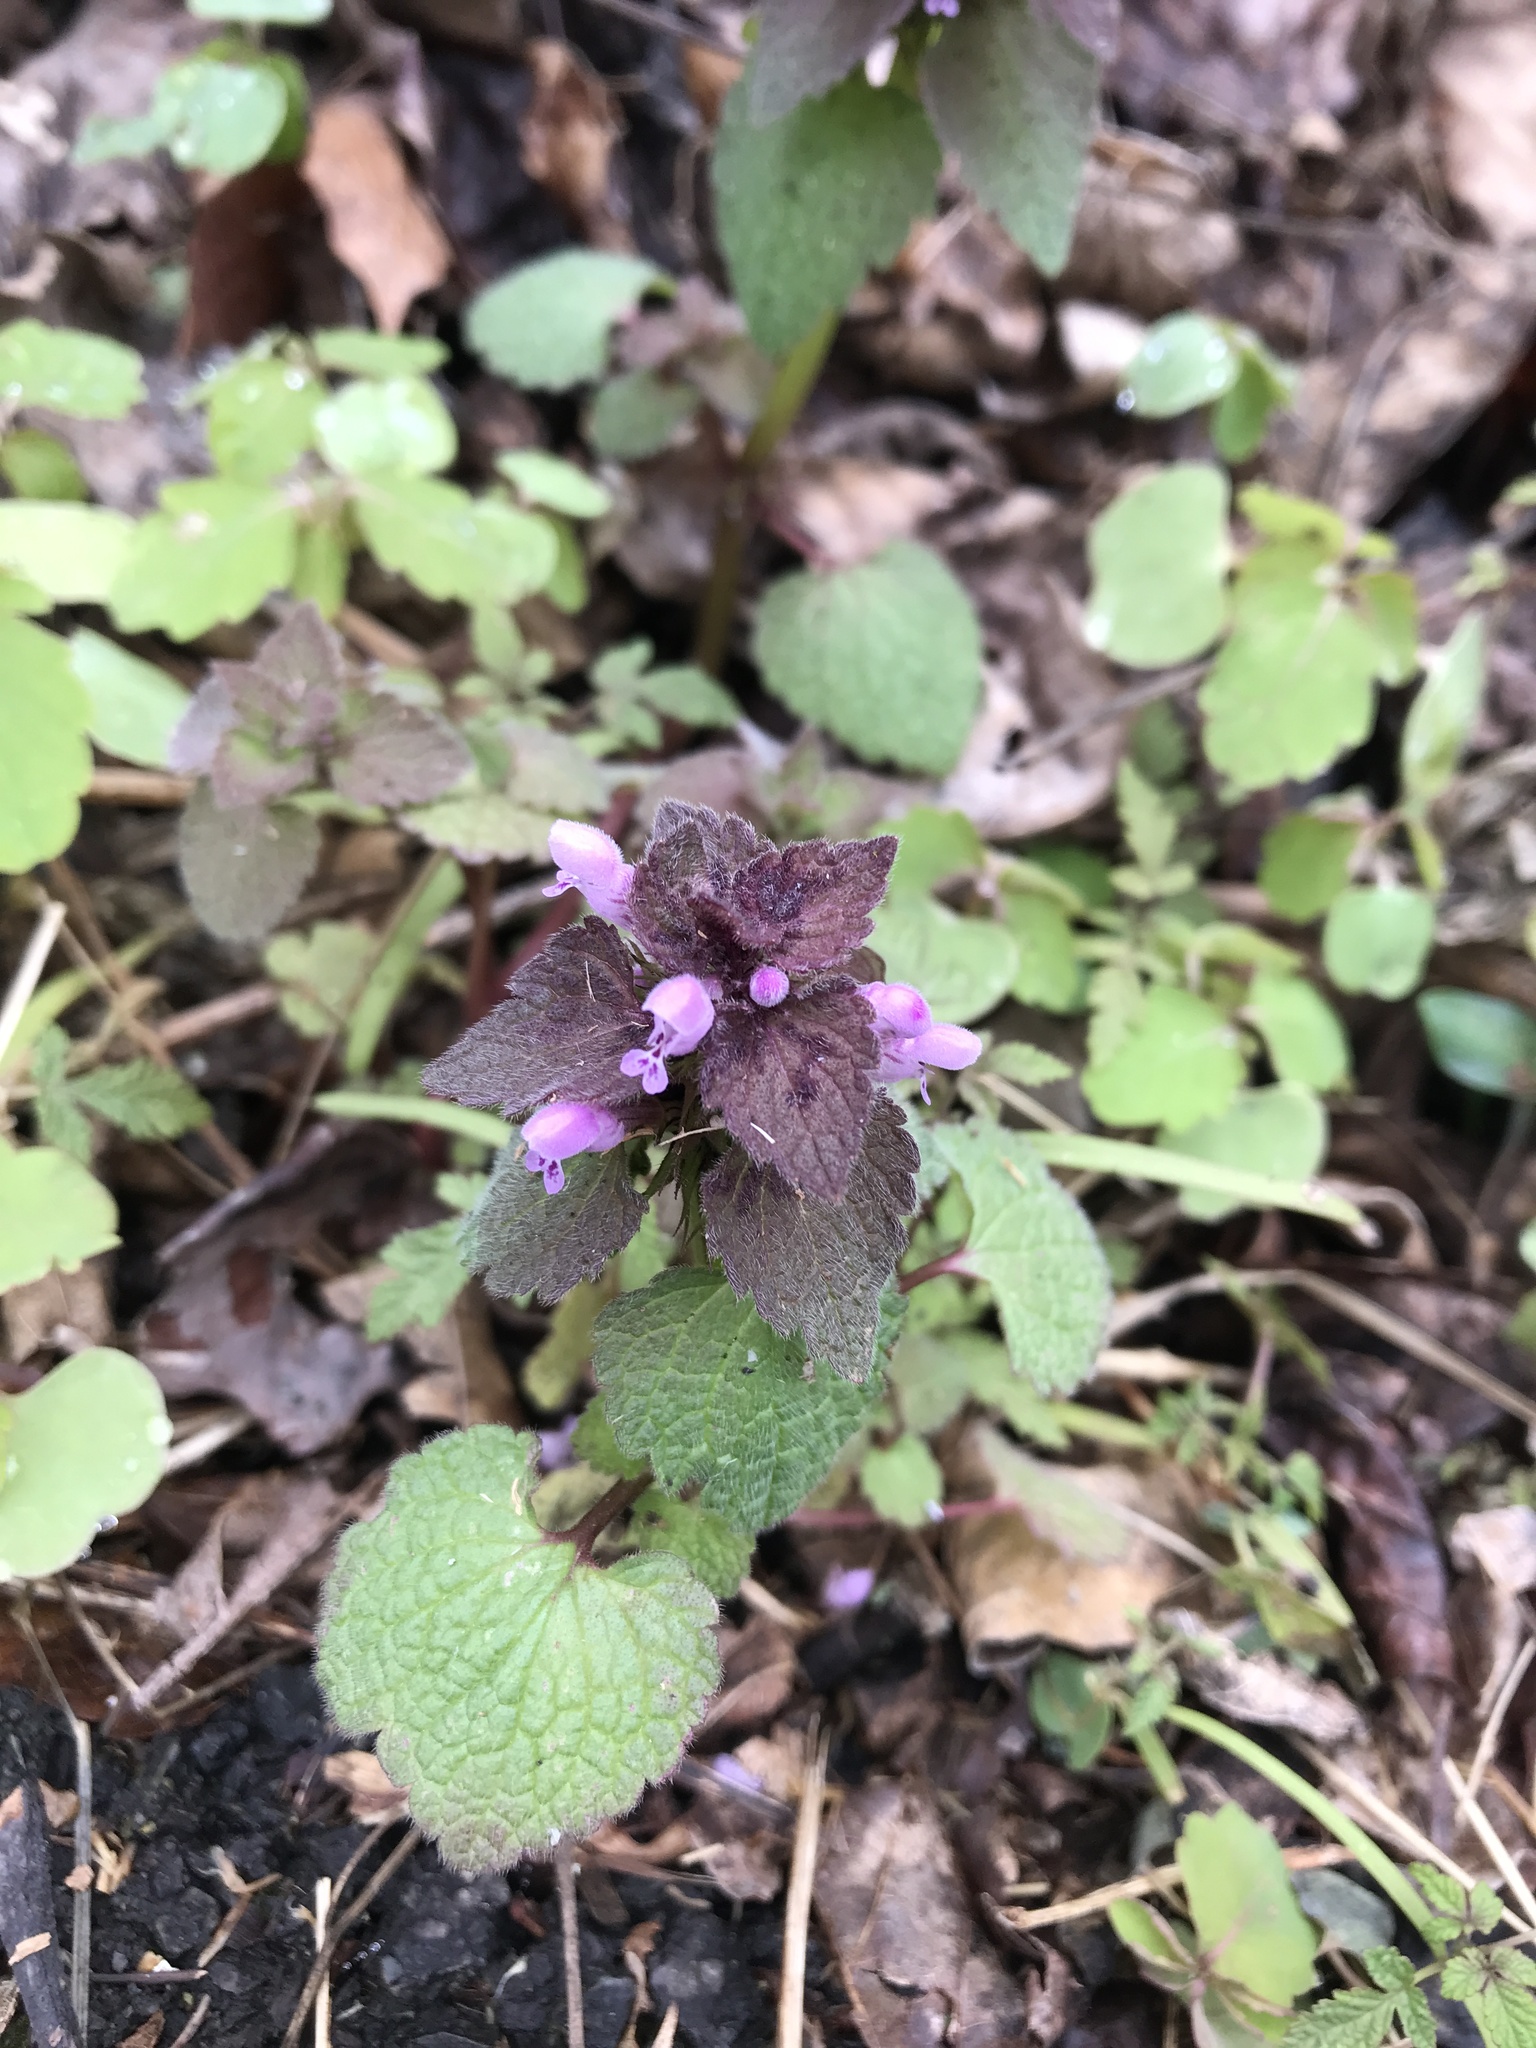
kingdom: Plantae
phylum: Tracheophyta
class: Magnoliopsida
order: Lamiales
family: Lamiaceae
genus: Lamium
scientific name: Lamium purpureum
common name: Red dead-nettle
